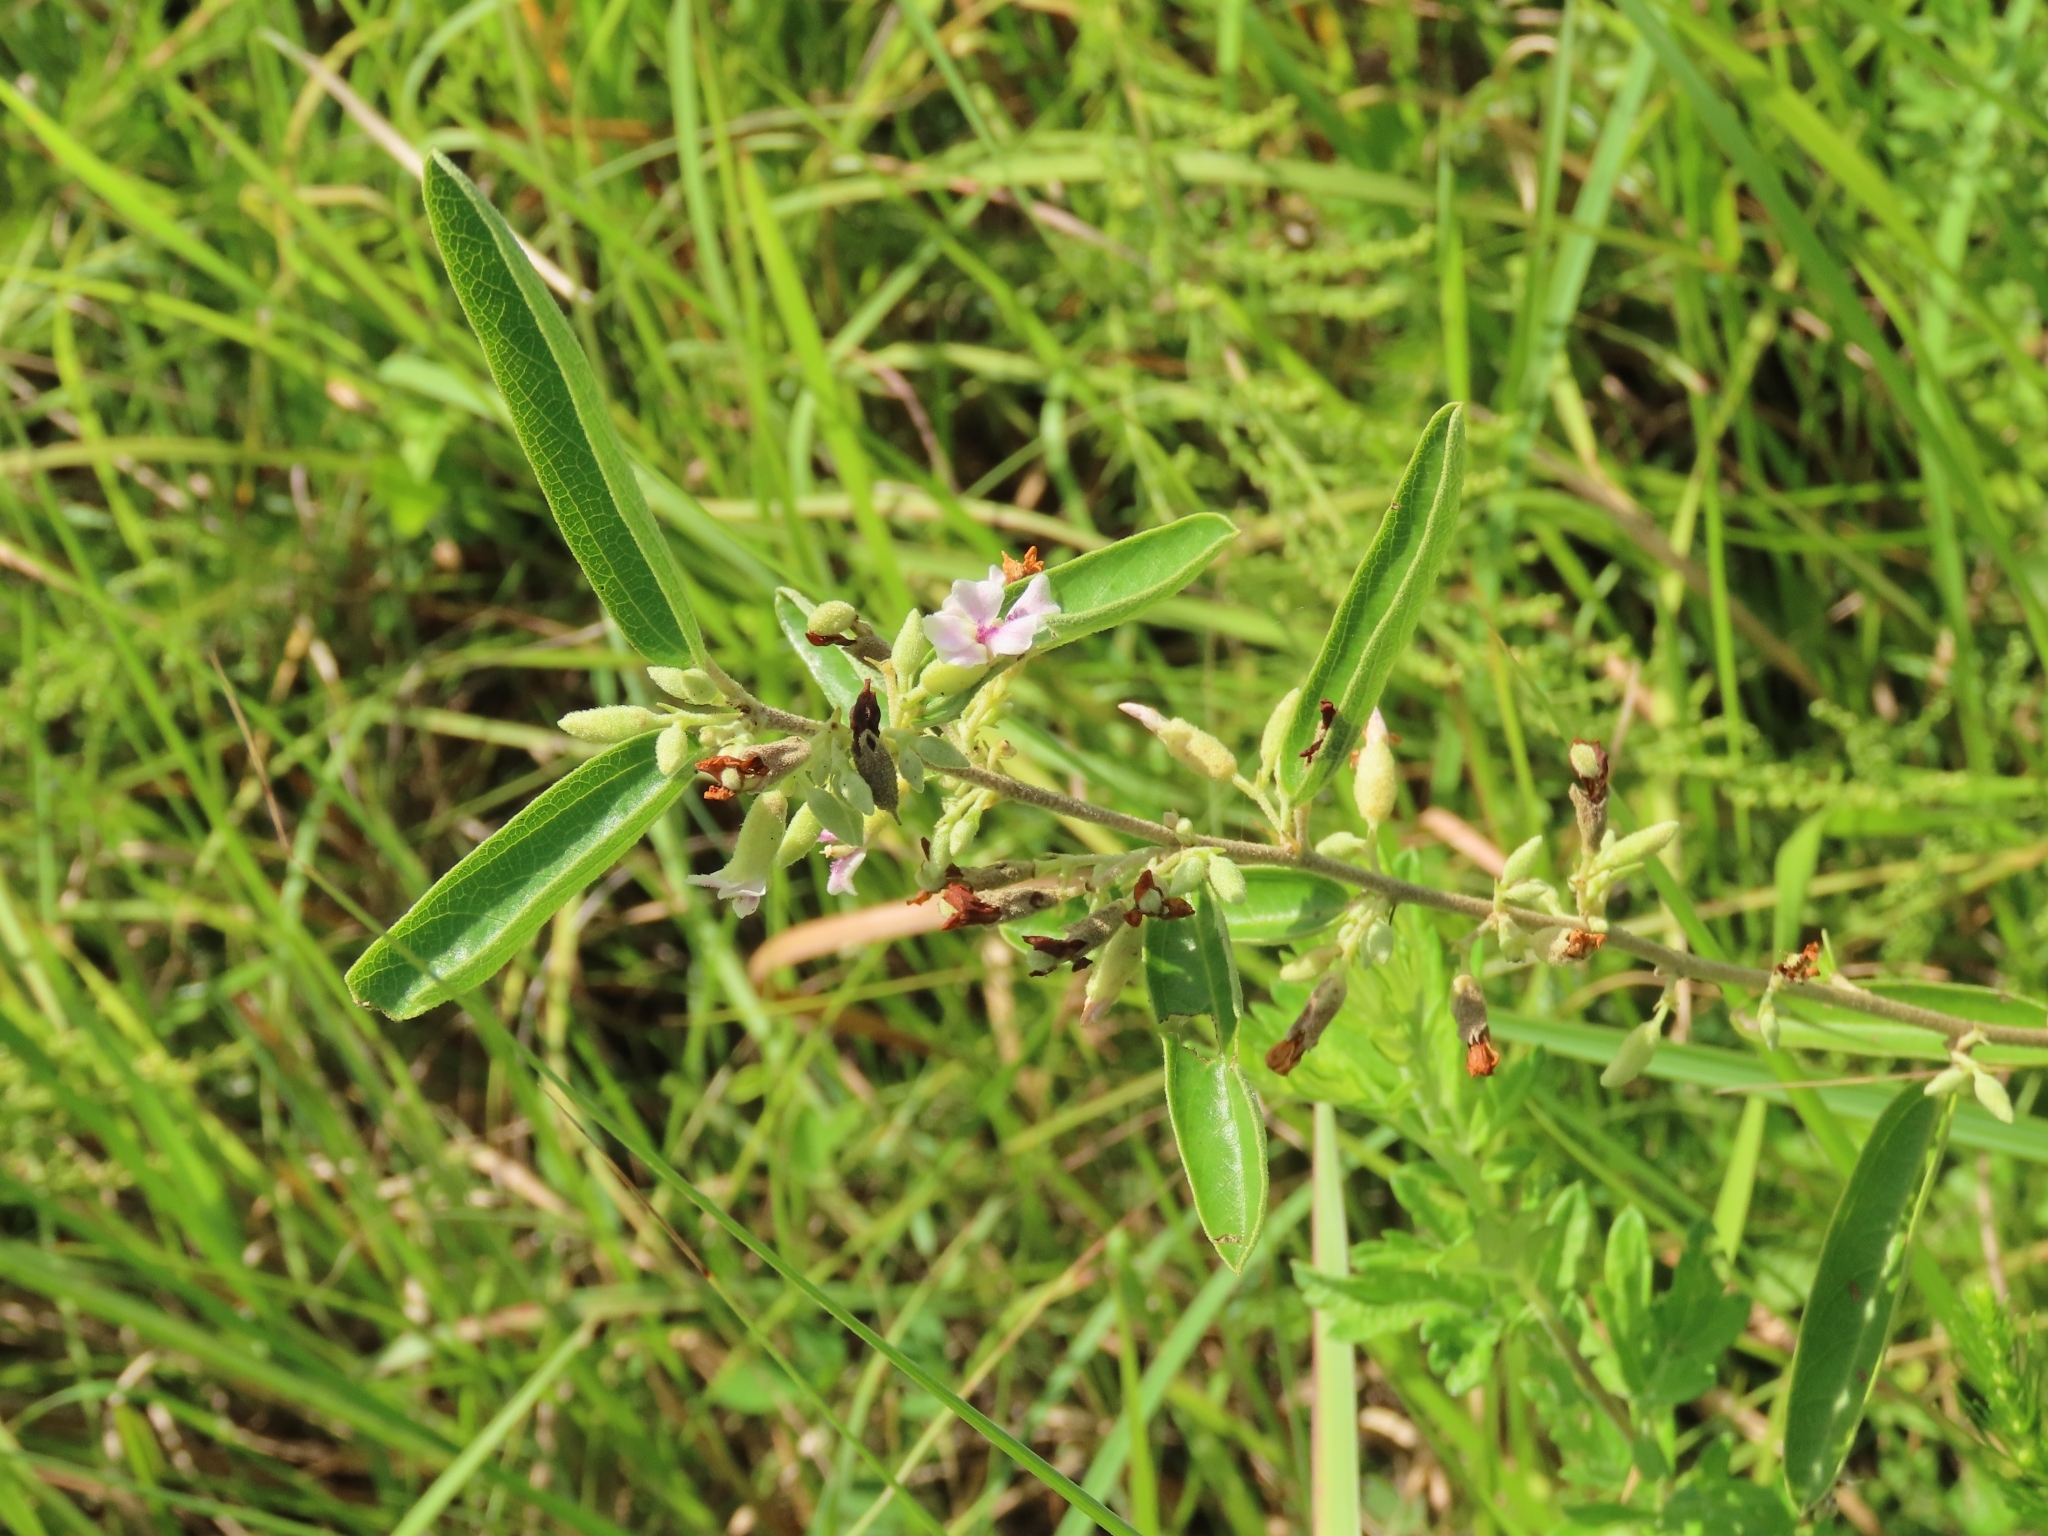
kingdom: Plantae
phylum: Tracheophyta
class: Magnoliopsida
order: Malvales
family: Malvaceae
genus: Helicteres
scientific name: Helicteres angustifolia
